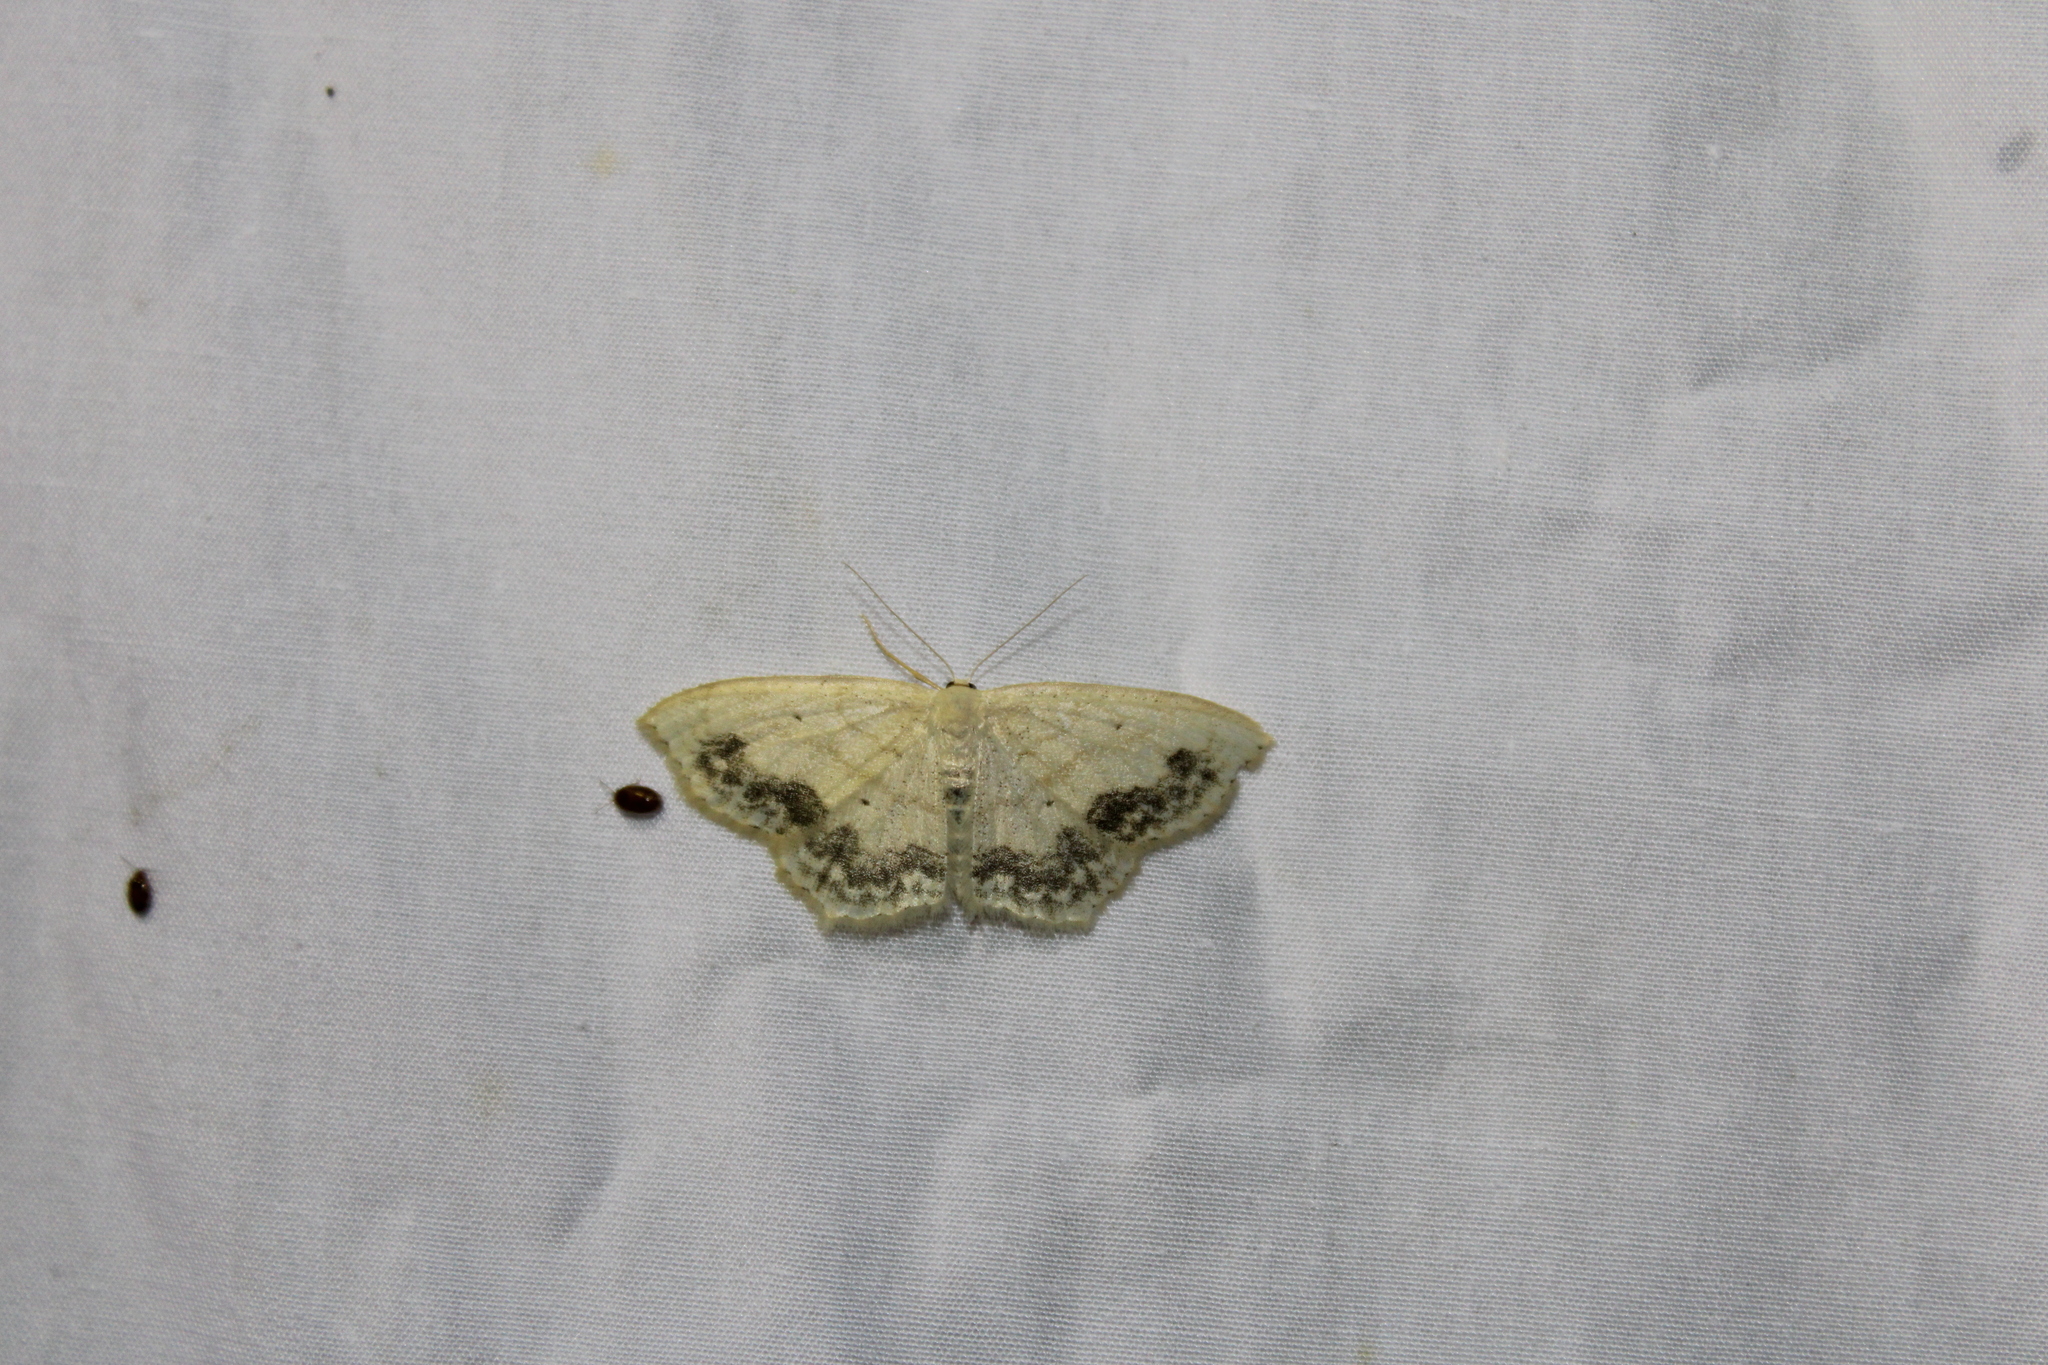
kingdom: Animalia
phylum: Arthropoda
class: Insecta
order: Lepidoptera
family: Geometridae
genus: Scopula
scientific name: Scopula limboundata
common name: Large lace border
